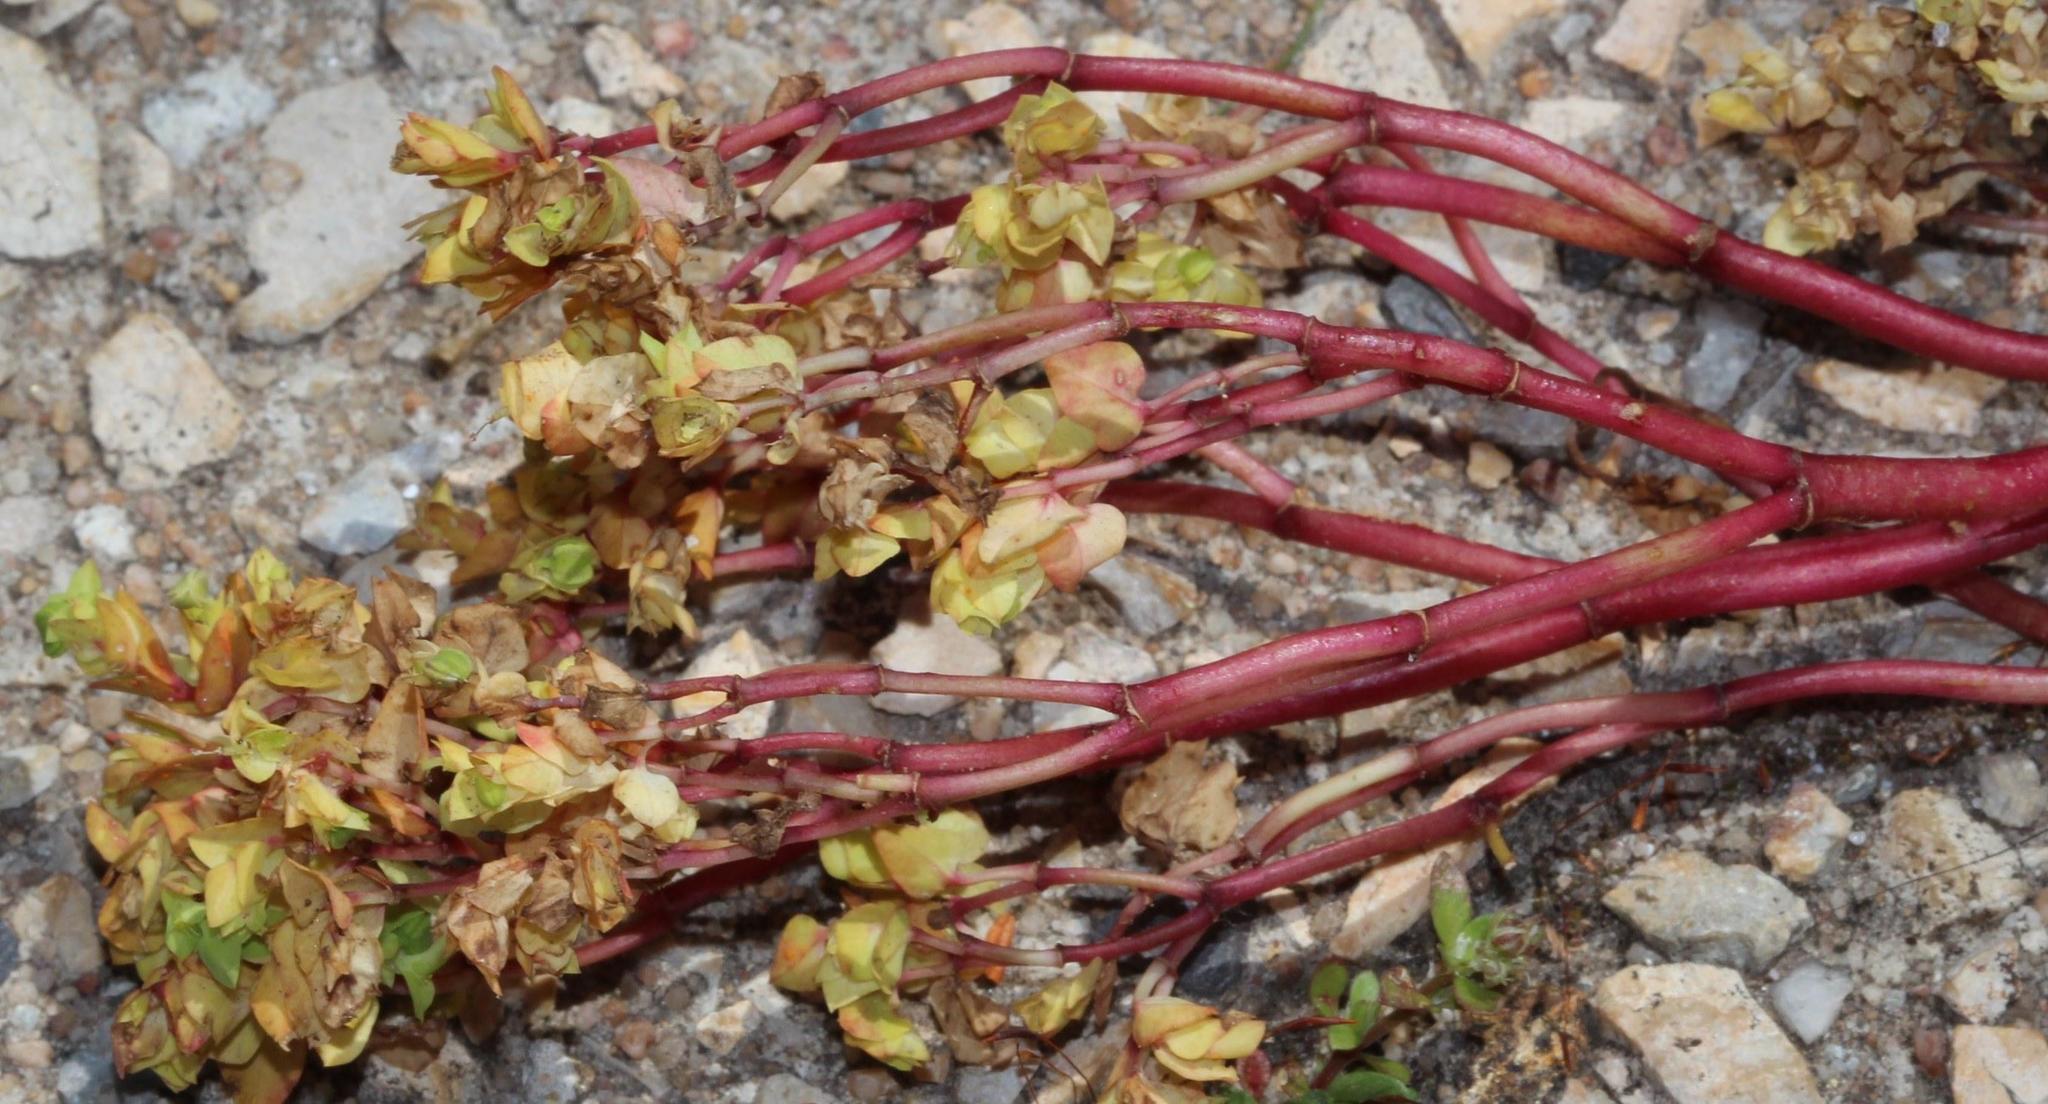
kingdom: Plantae
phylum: Tracheophyta
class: Magnoliopsida
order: Malpighiales
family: Euphorbiaceae
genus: Euphorbia
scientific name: Euphorbia peplus
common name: Petty spurge
